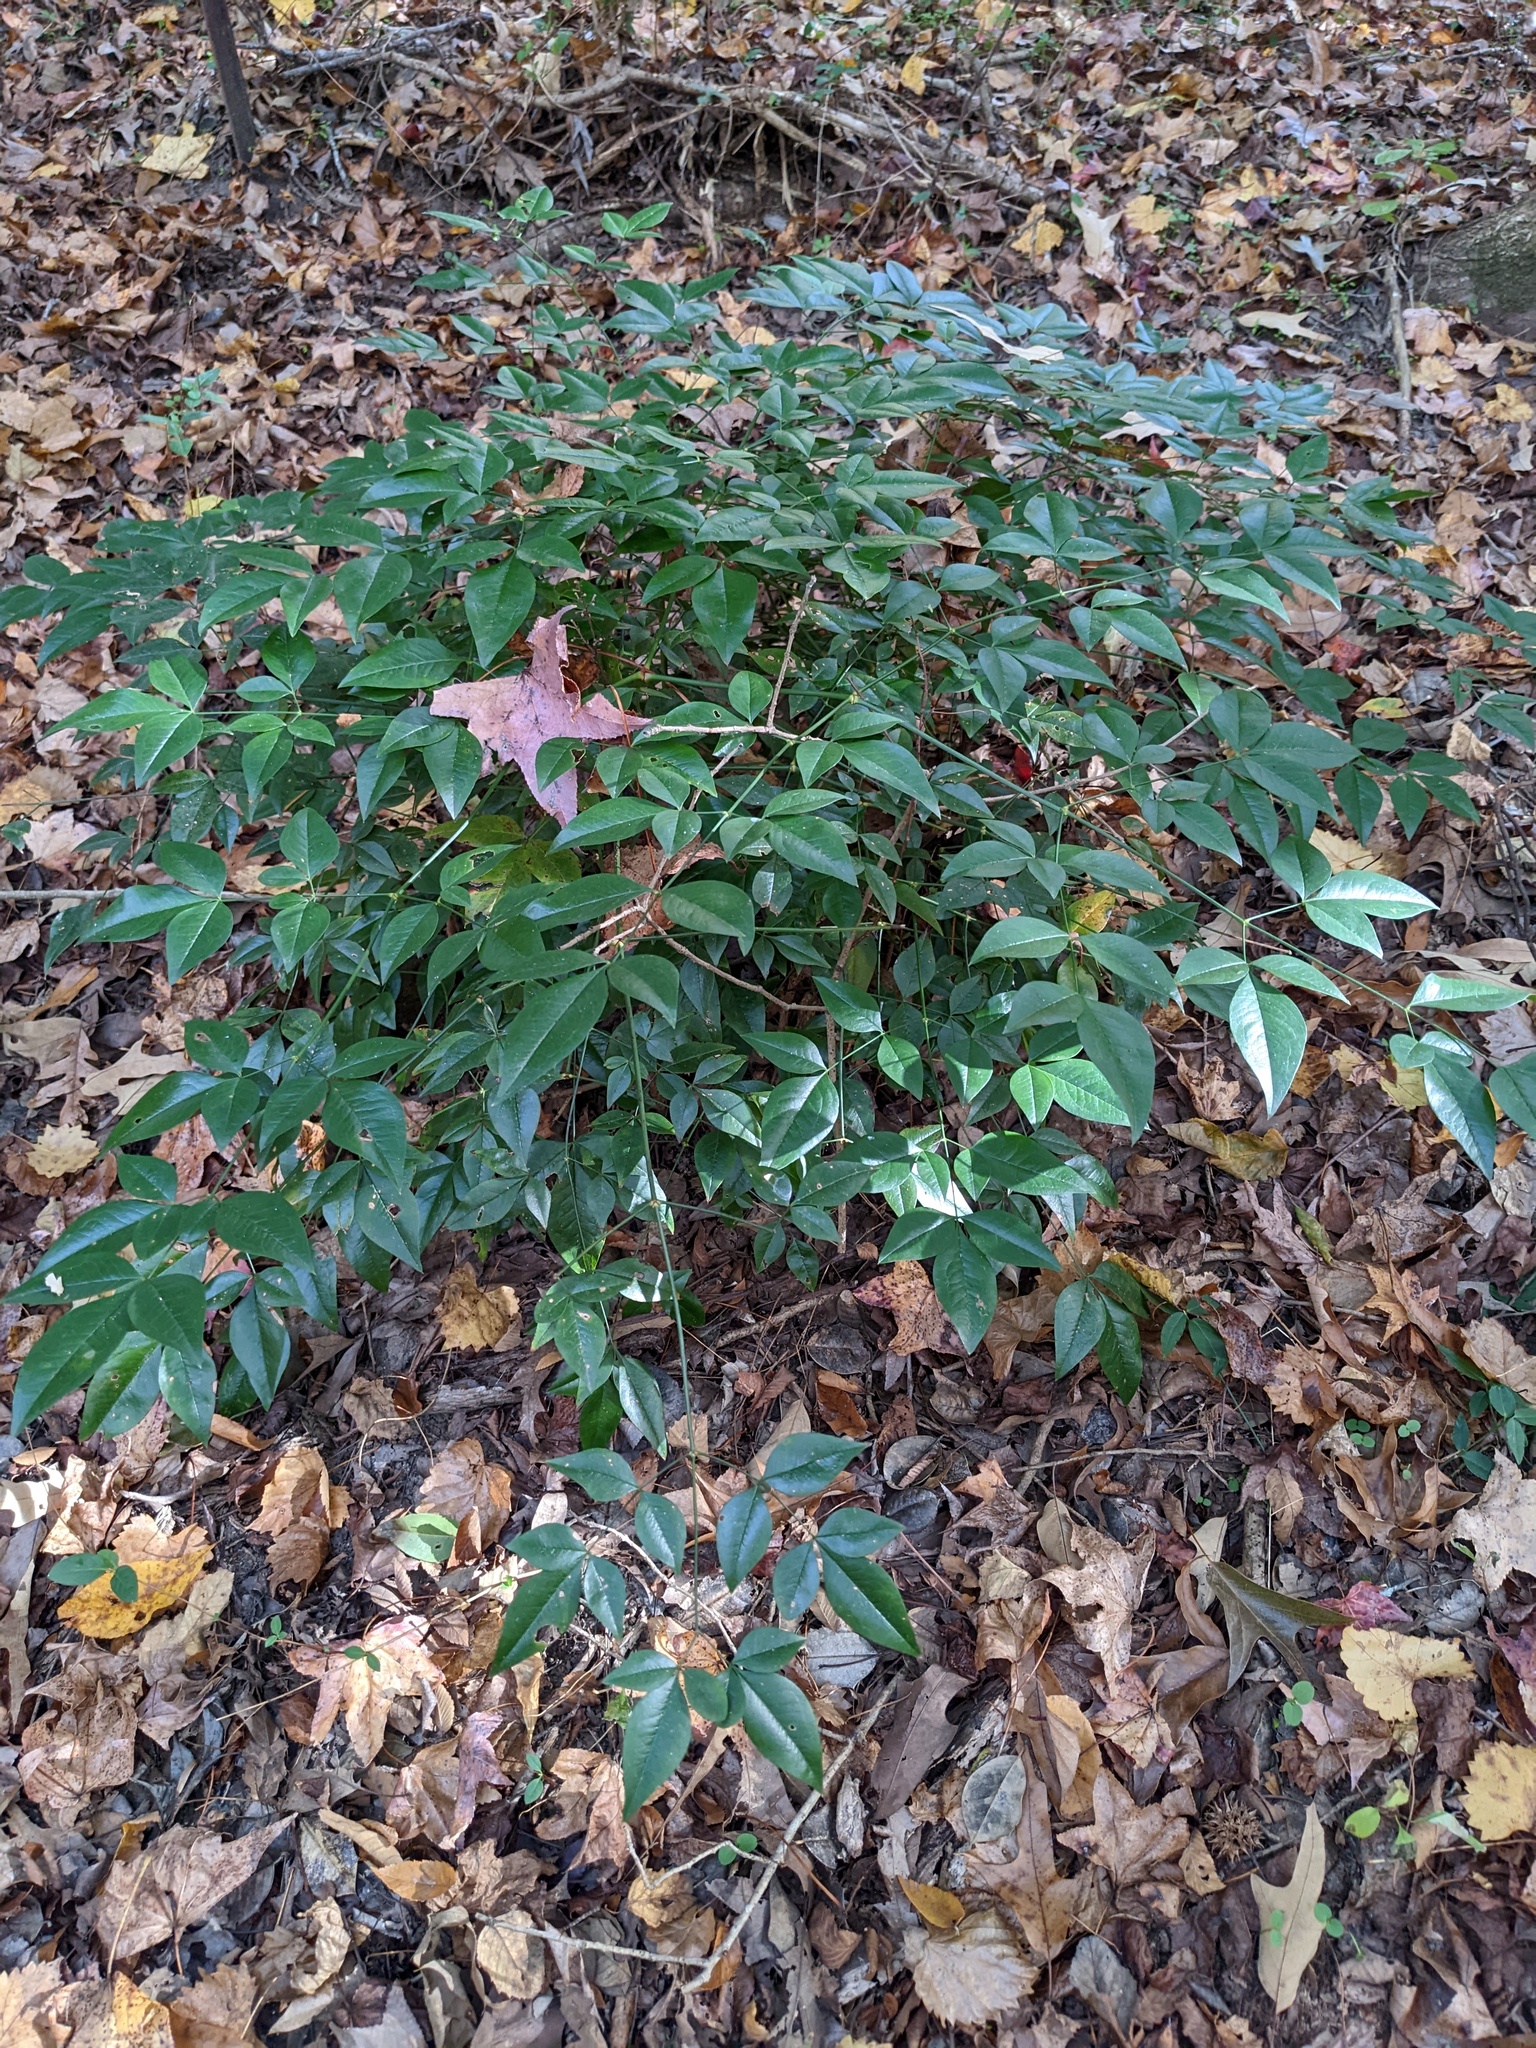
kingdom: Plantae
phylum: Tracheophyta
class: Magnoliopsida
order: Ranunculales
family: Berberidaceae
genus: Nandina
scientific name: Nandina domestica
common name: Sacred bamboo
